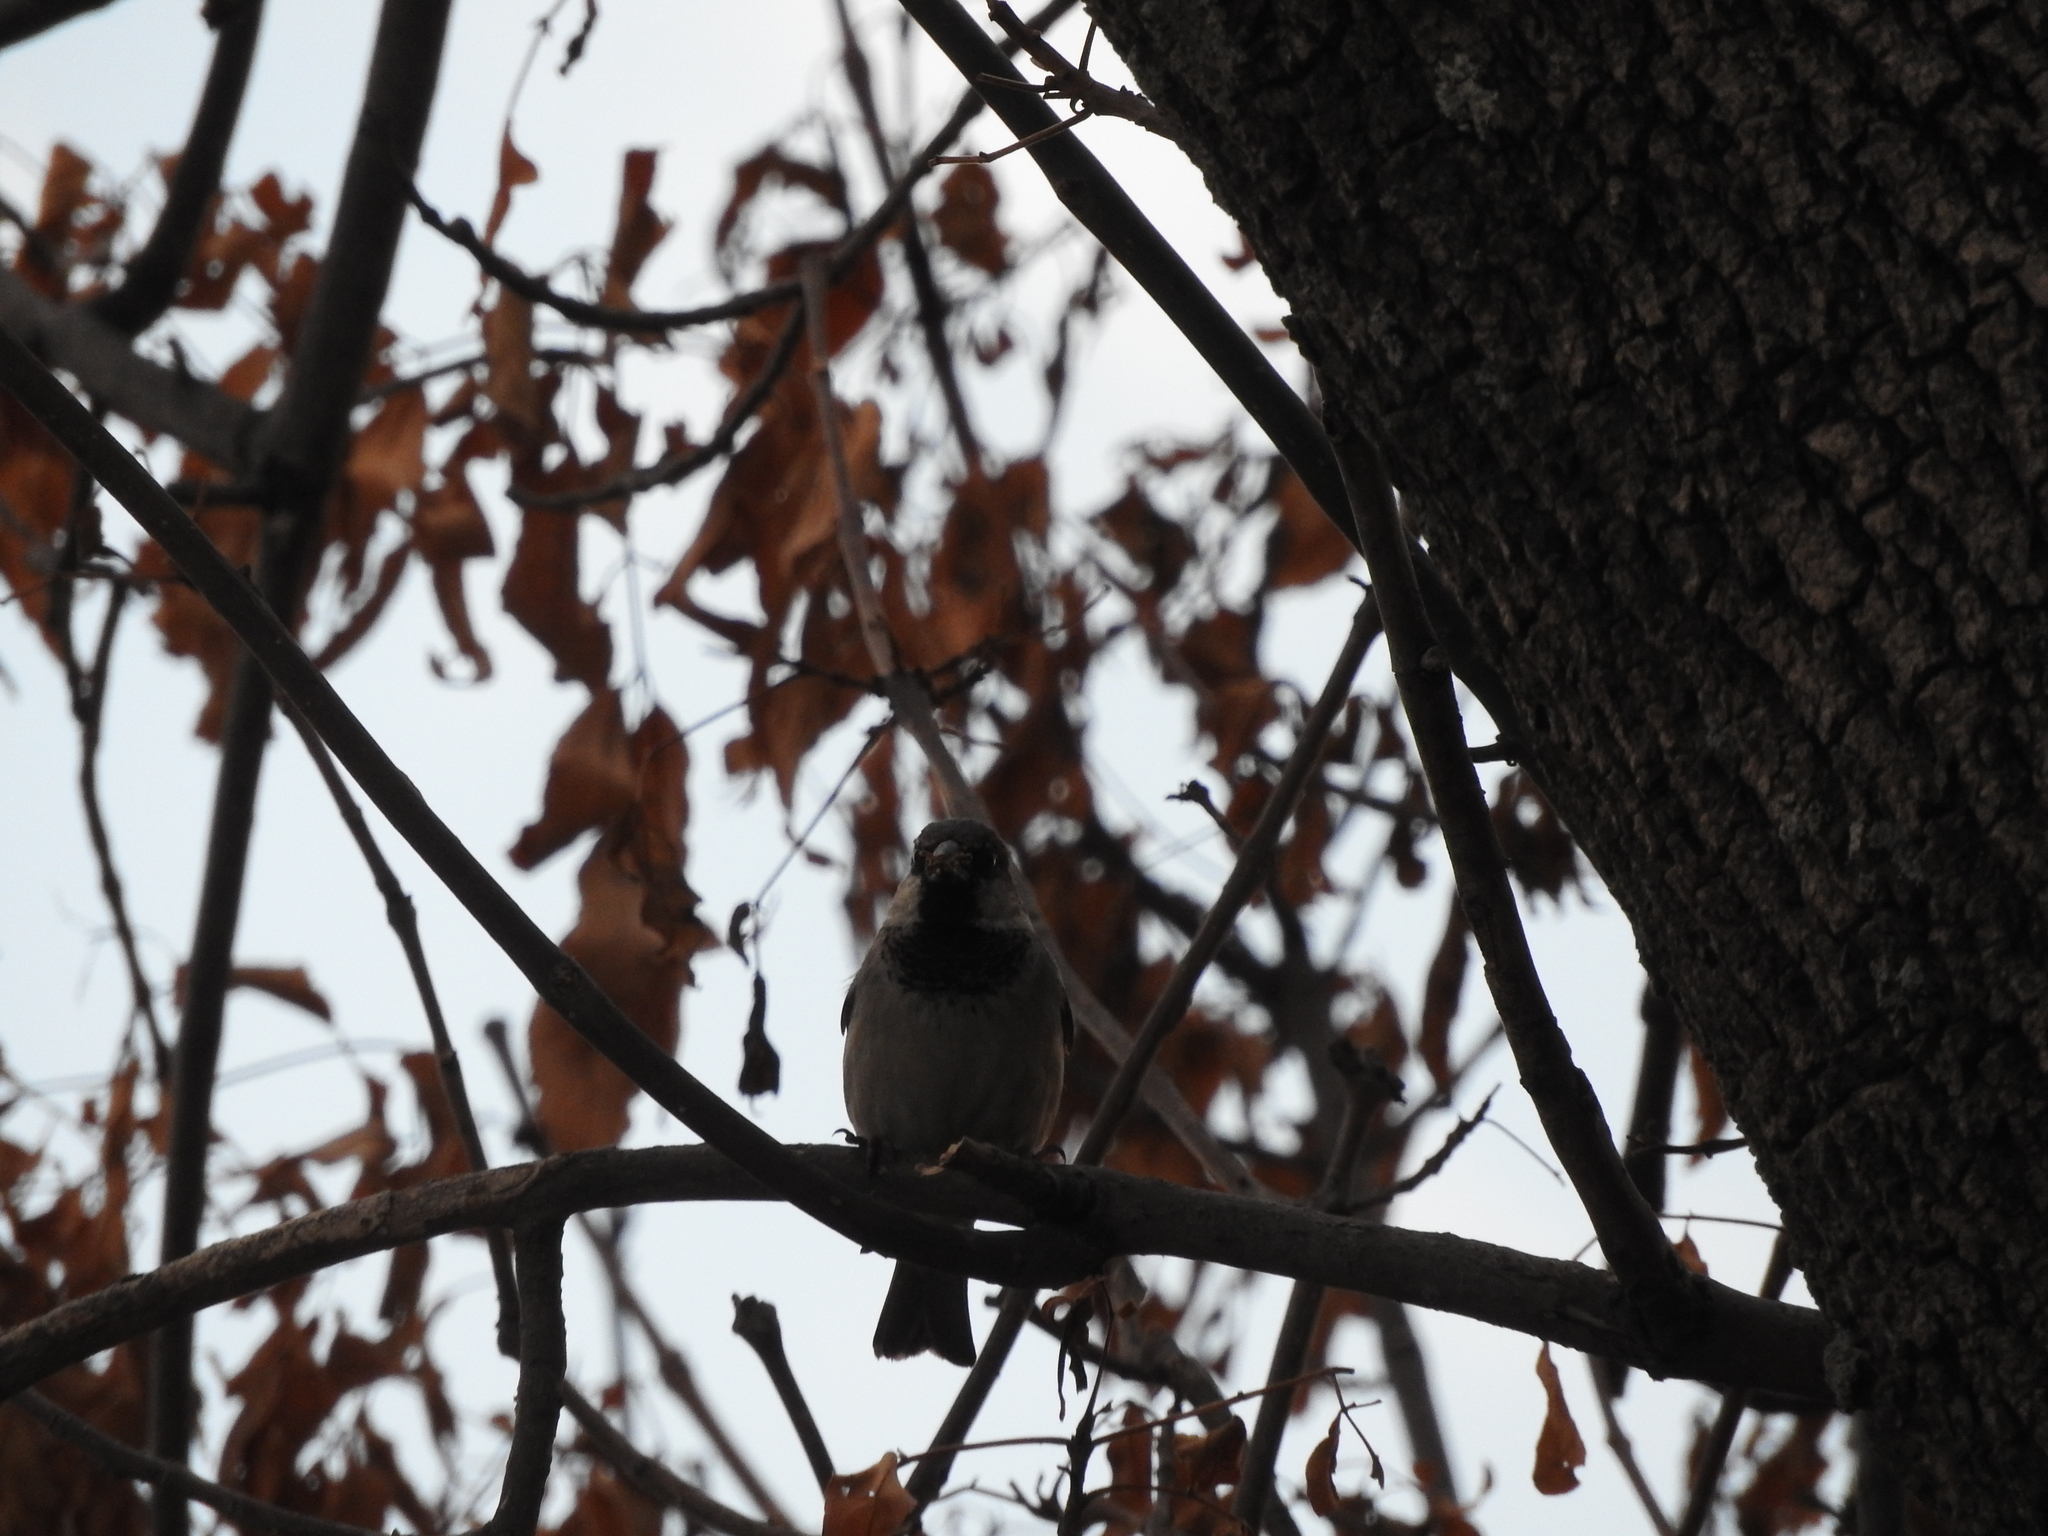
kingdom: Animalia
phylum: Chordata
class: Aves
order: Passeriformes
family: Passeridae
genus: Passer
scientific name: Passer domesticus
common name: House sparrow
